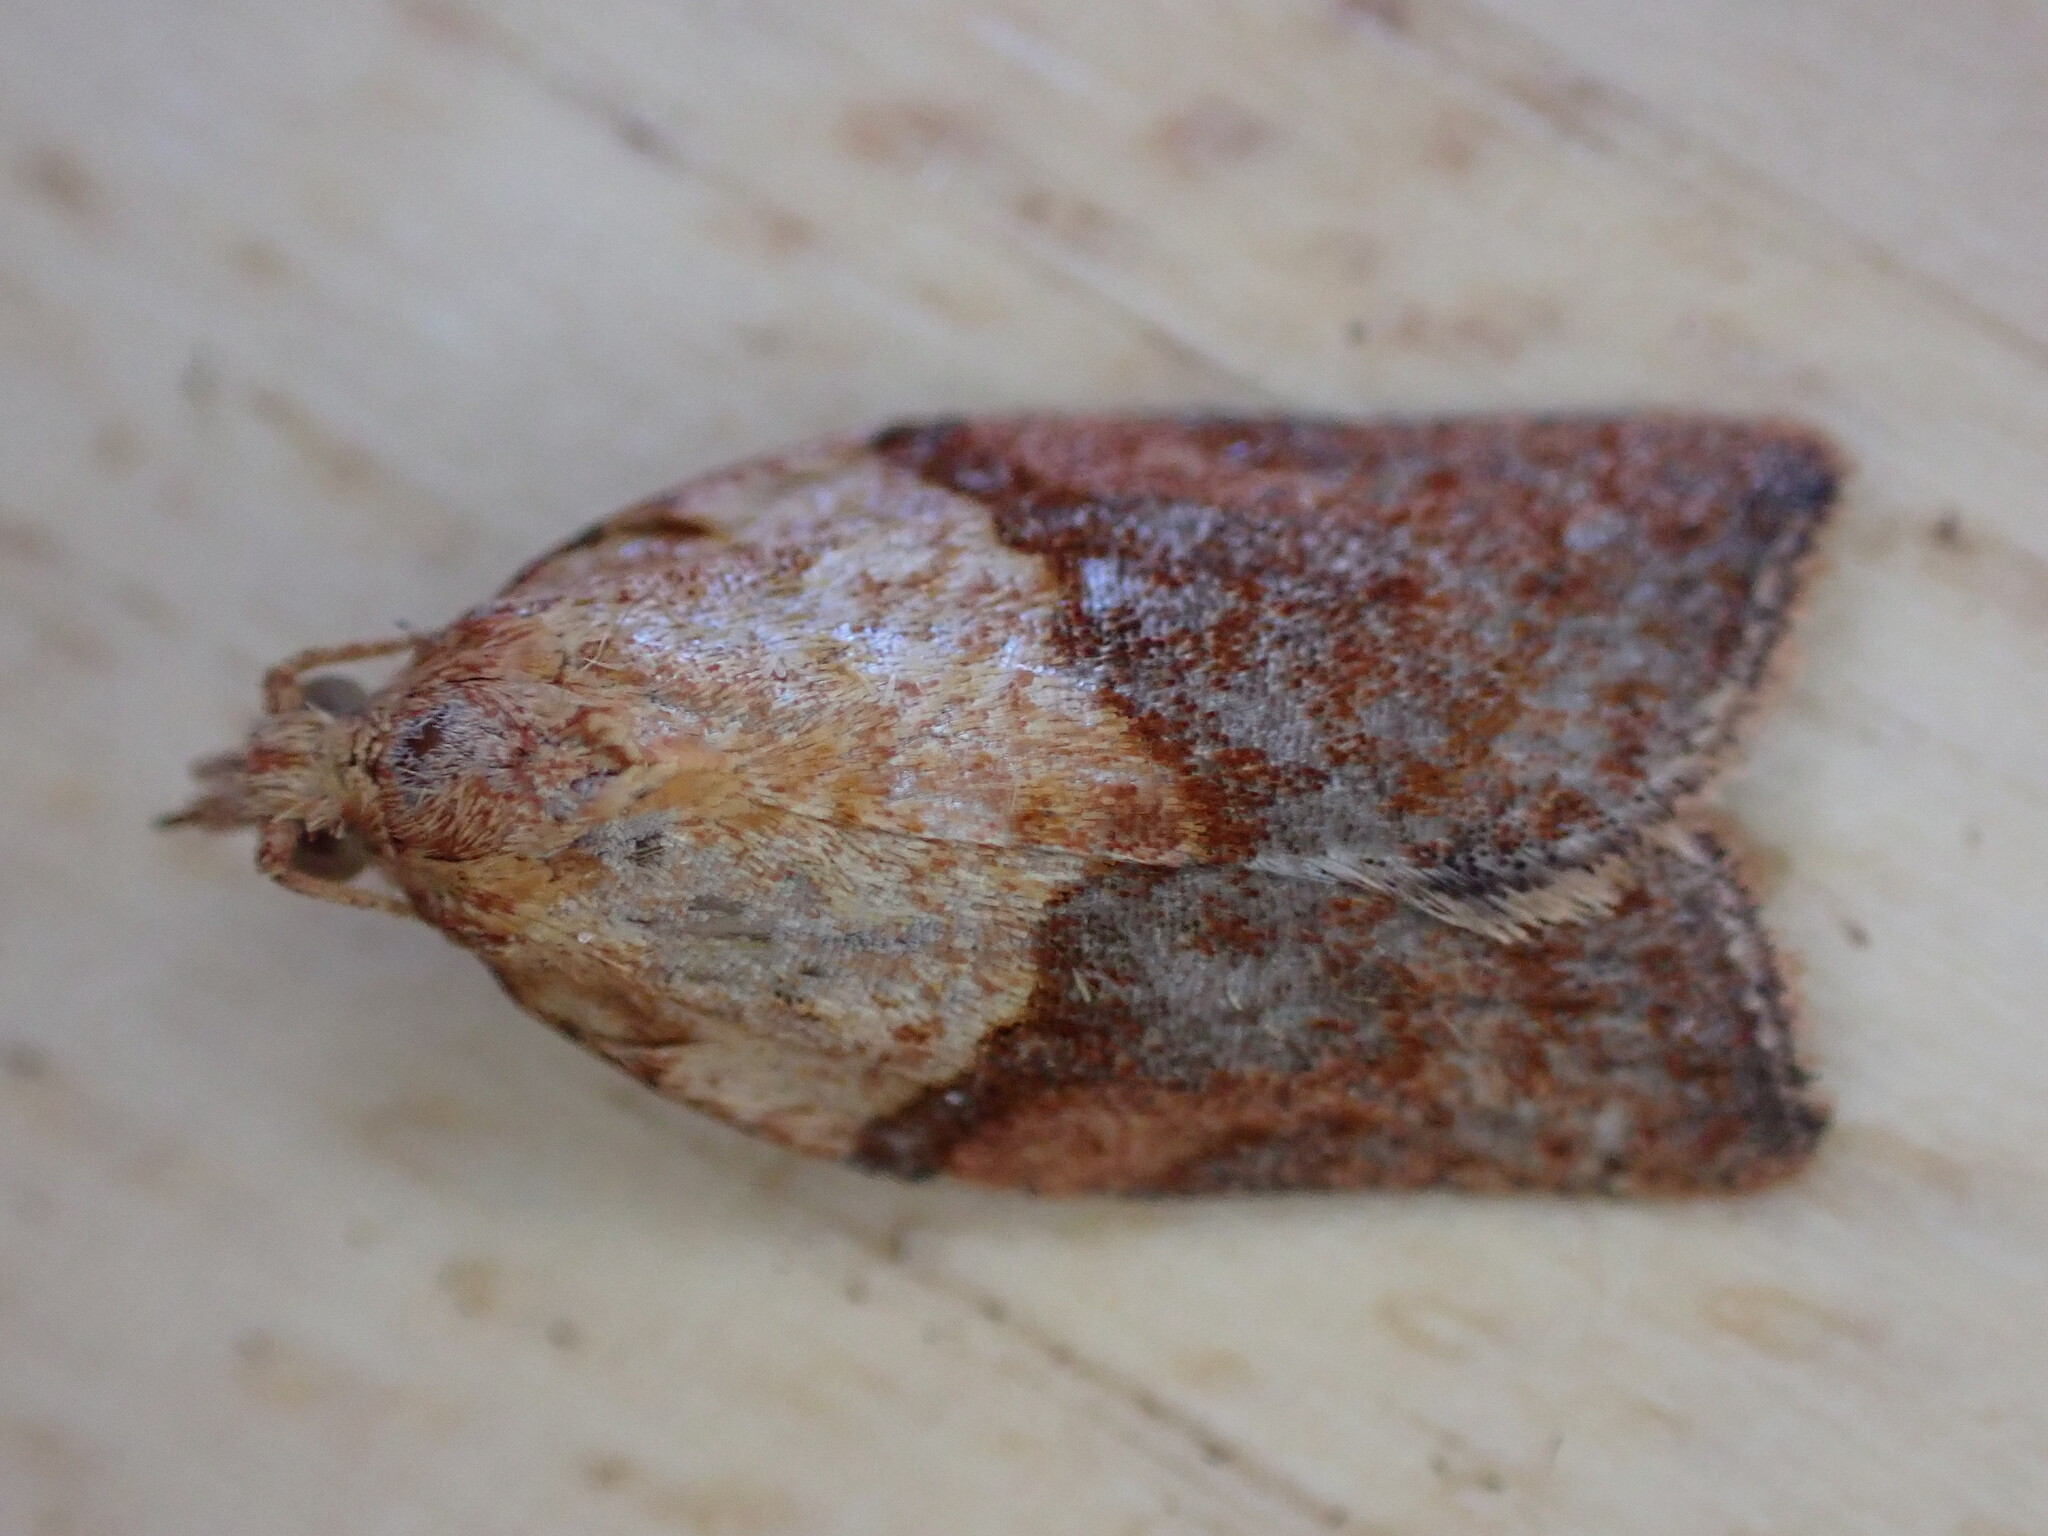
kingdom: Animalia
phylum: Arthropoda
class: Insecta
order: Lepidoptera
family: Tortricidae
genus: Epiphyas
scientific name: Epiphyas postvittana
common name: Light brown apple moth
